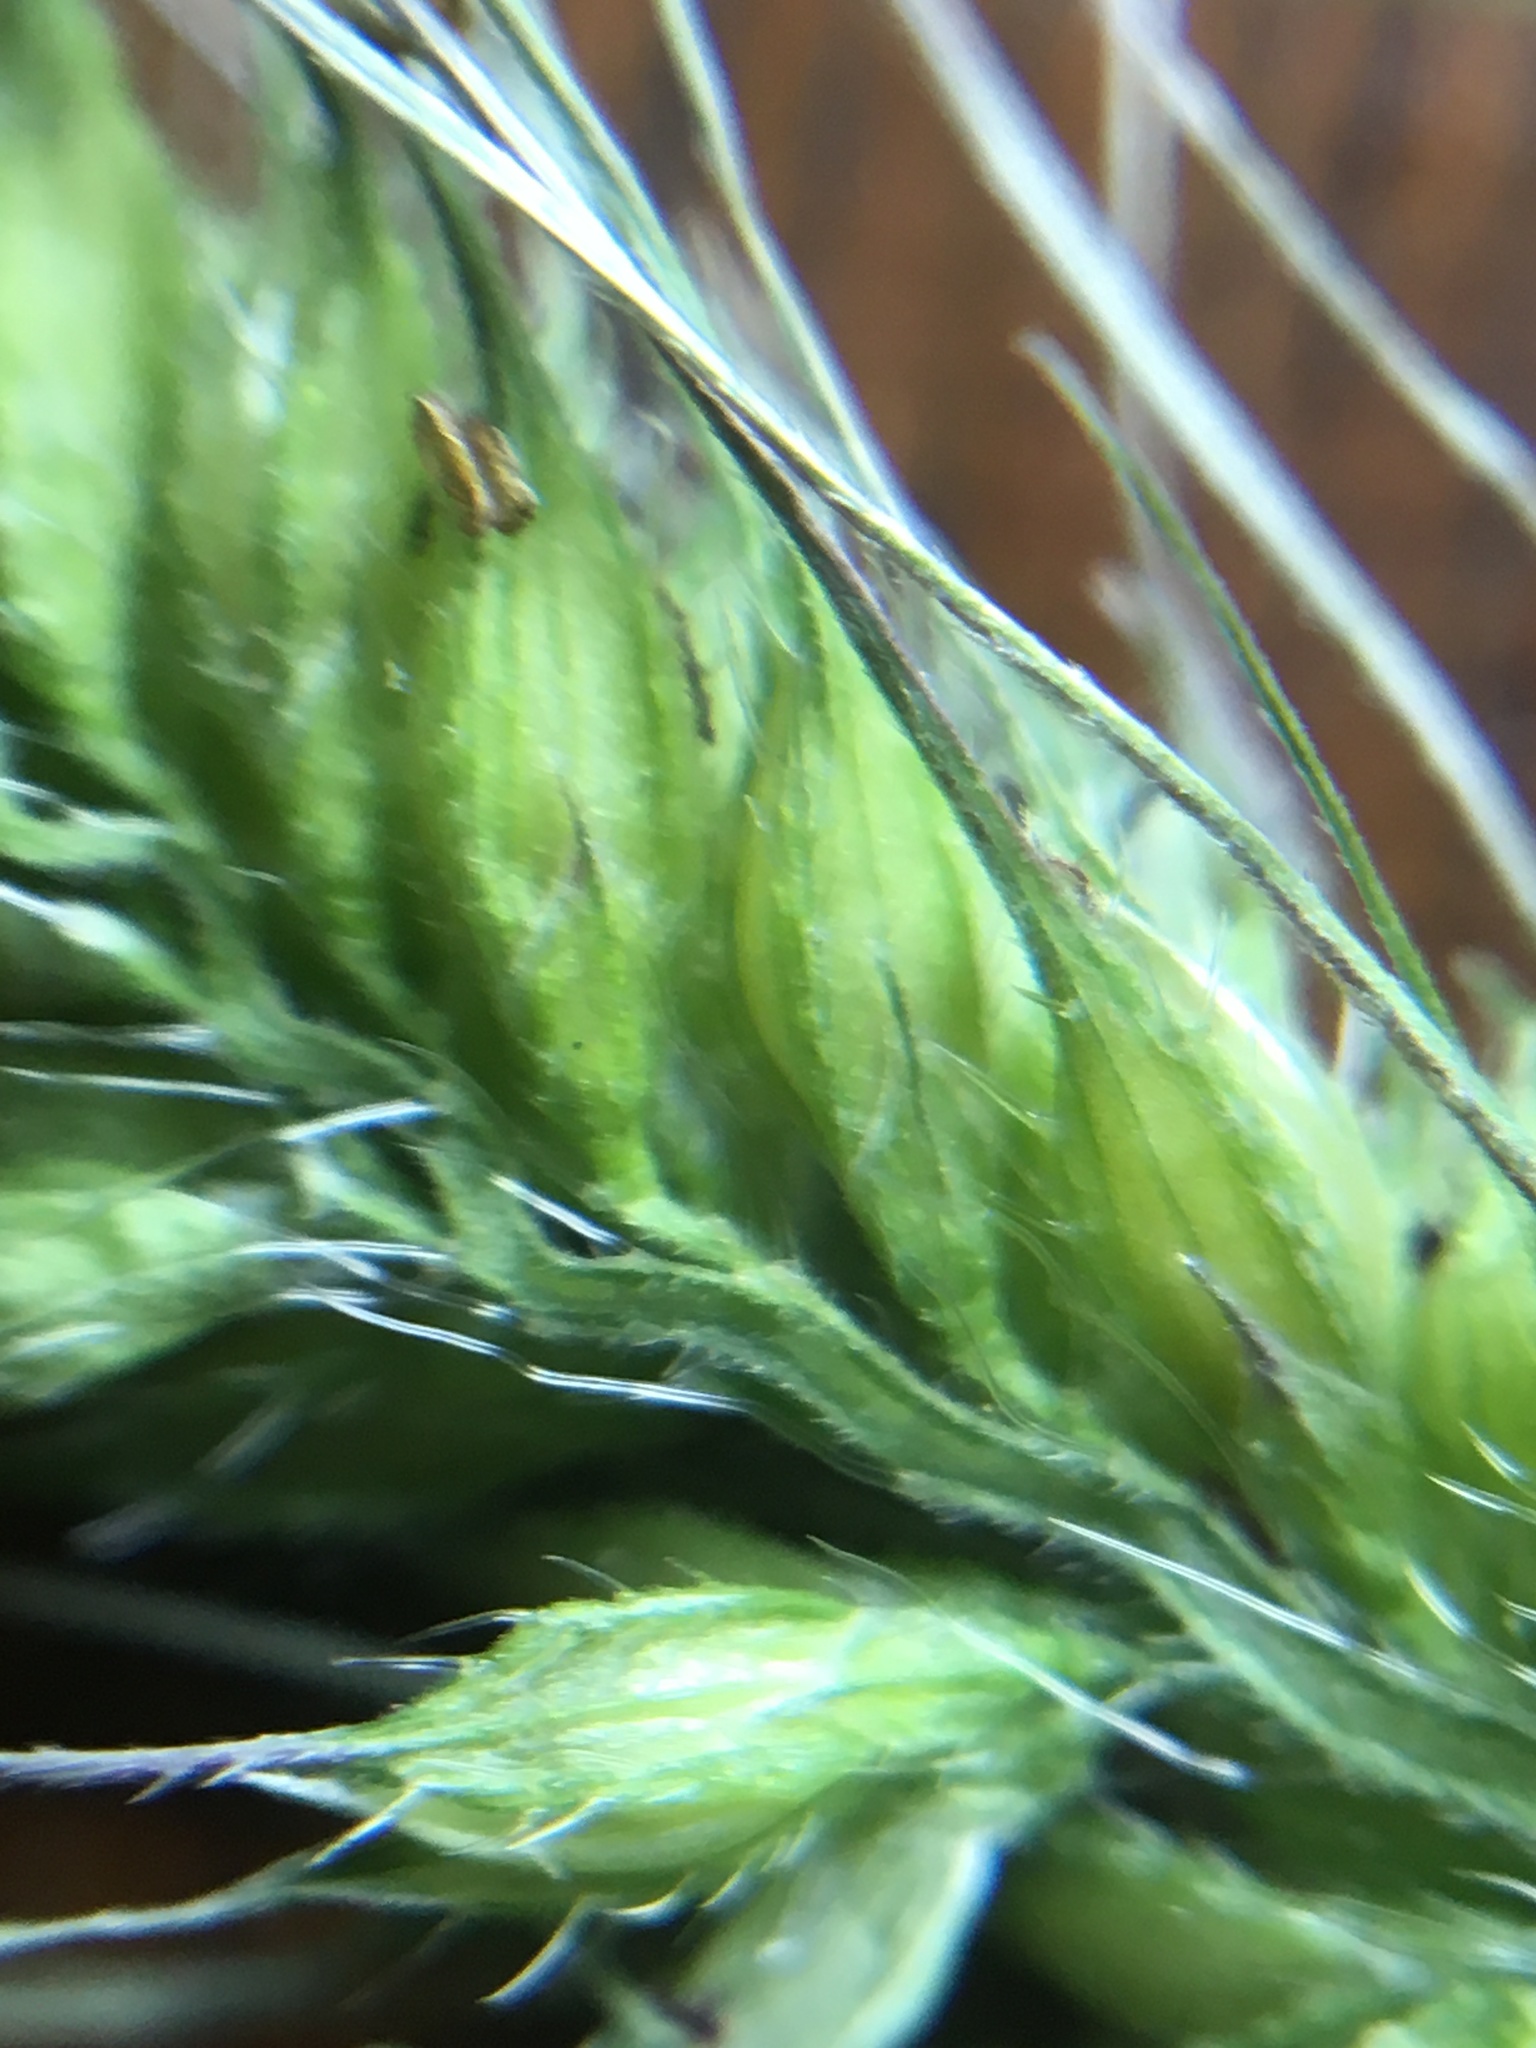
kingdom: Plantae
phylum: Tracheophyta
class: Liliopsida
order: Poales
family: Poaceae
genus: Echinochloa
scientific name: Echinochloa walteri
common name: Coast barnyard grass
